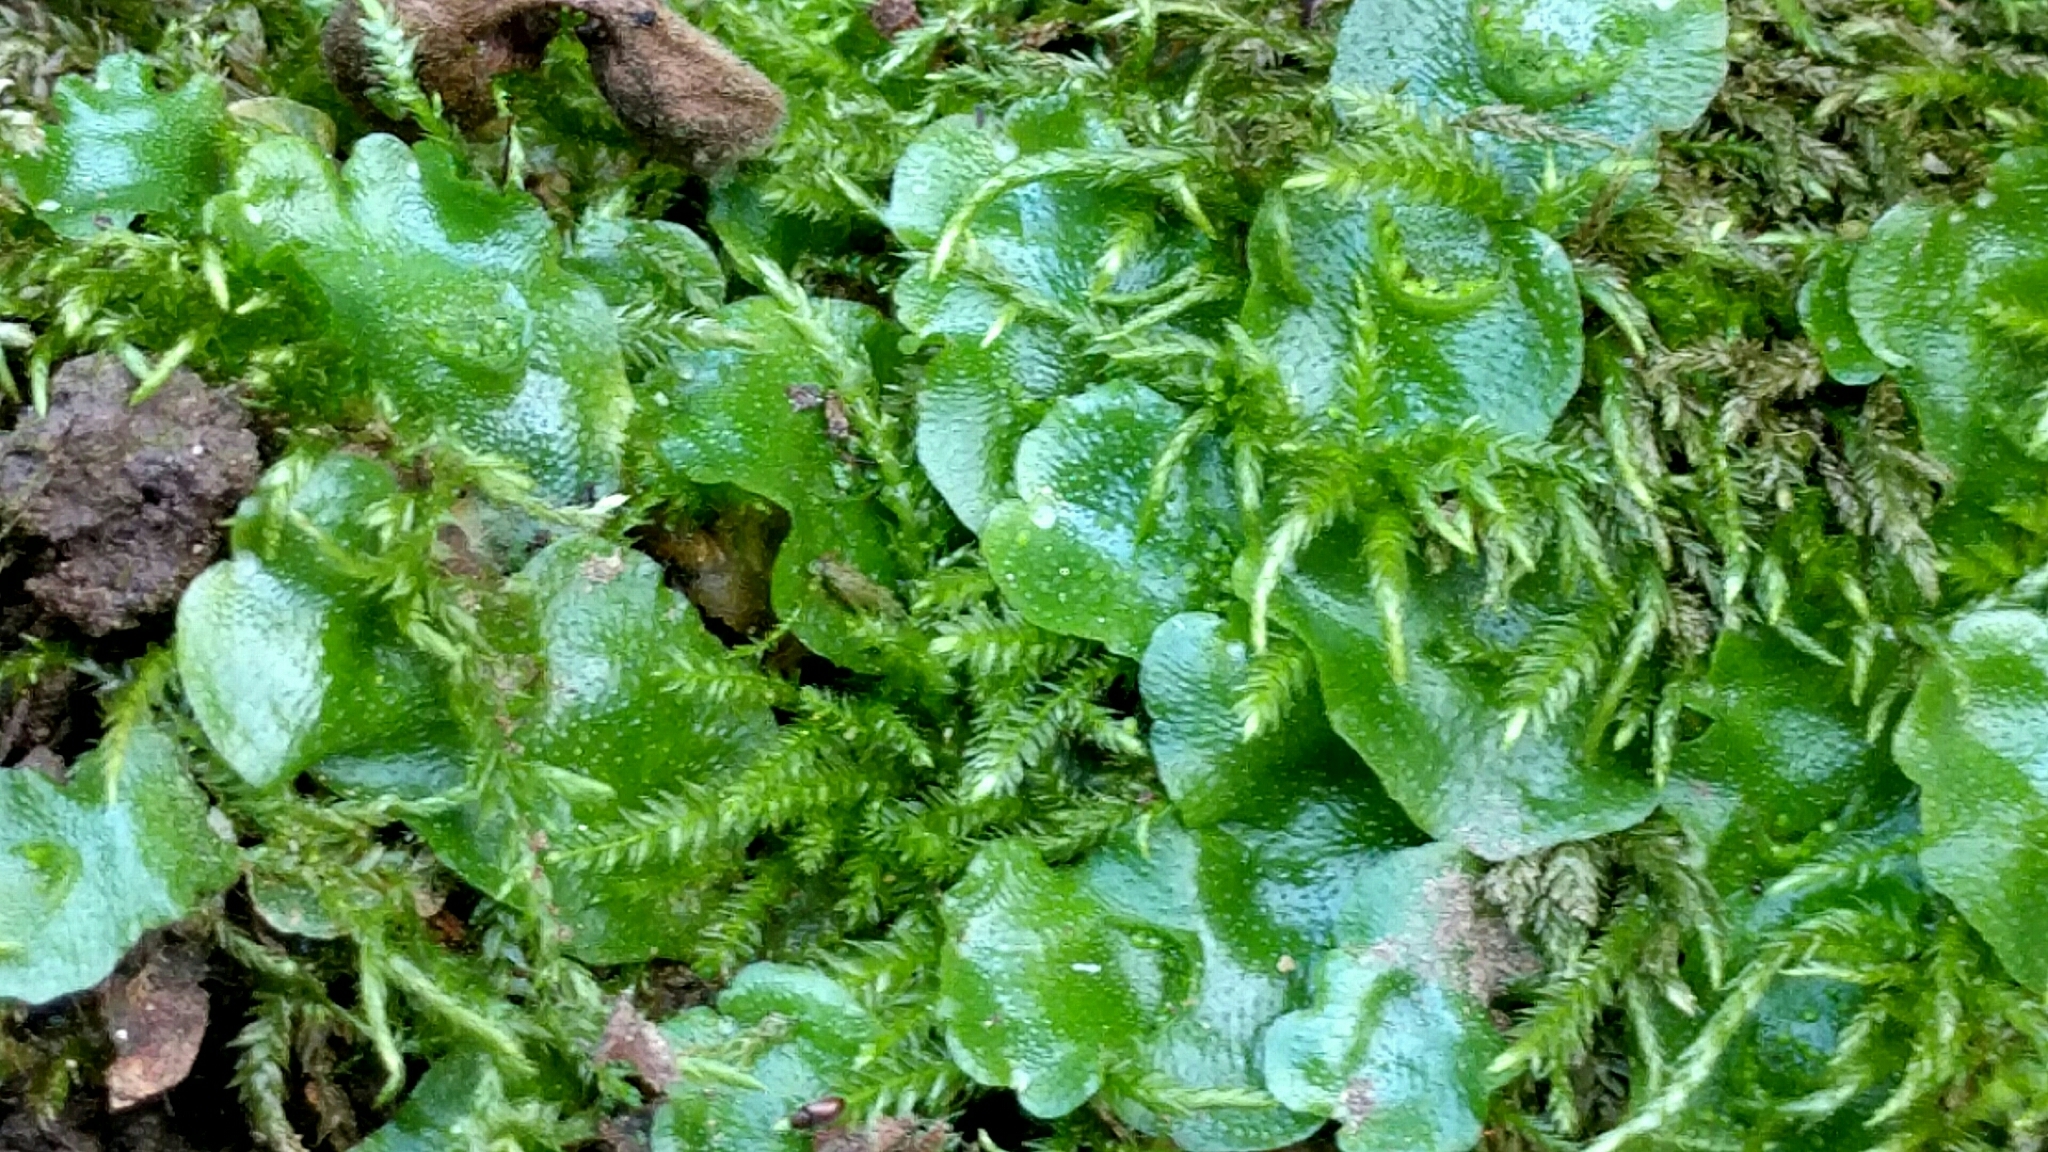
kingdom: Plantae
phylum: Marchantiophyta
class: Marchantiopsida
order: Lunulariales
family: Lunulariaceae
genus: Lunularia
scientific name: Lunularia cruciata
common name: Crescent-cup liverwort
